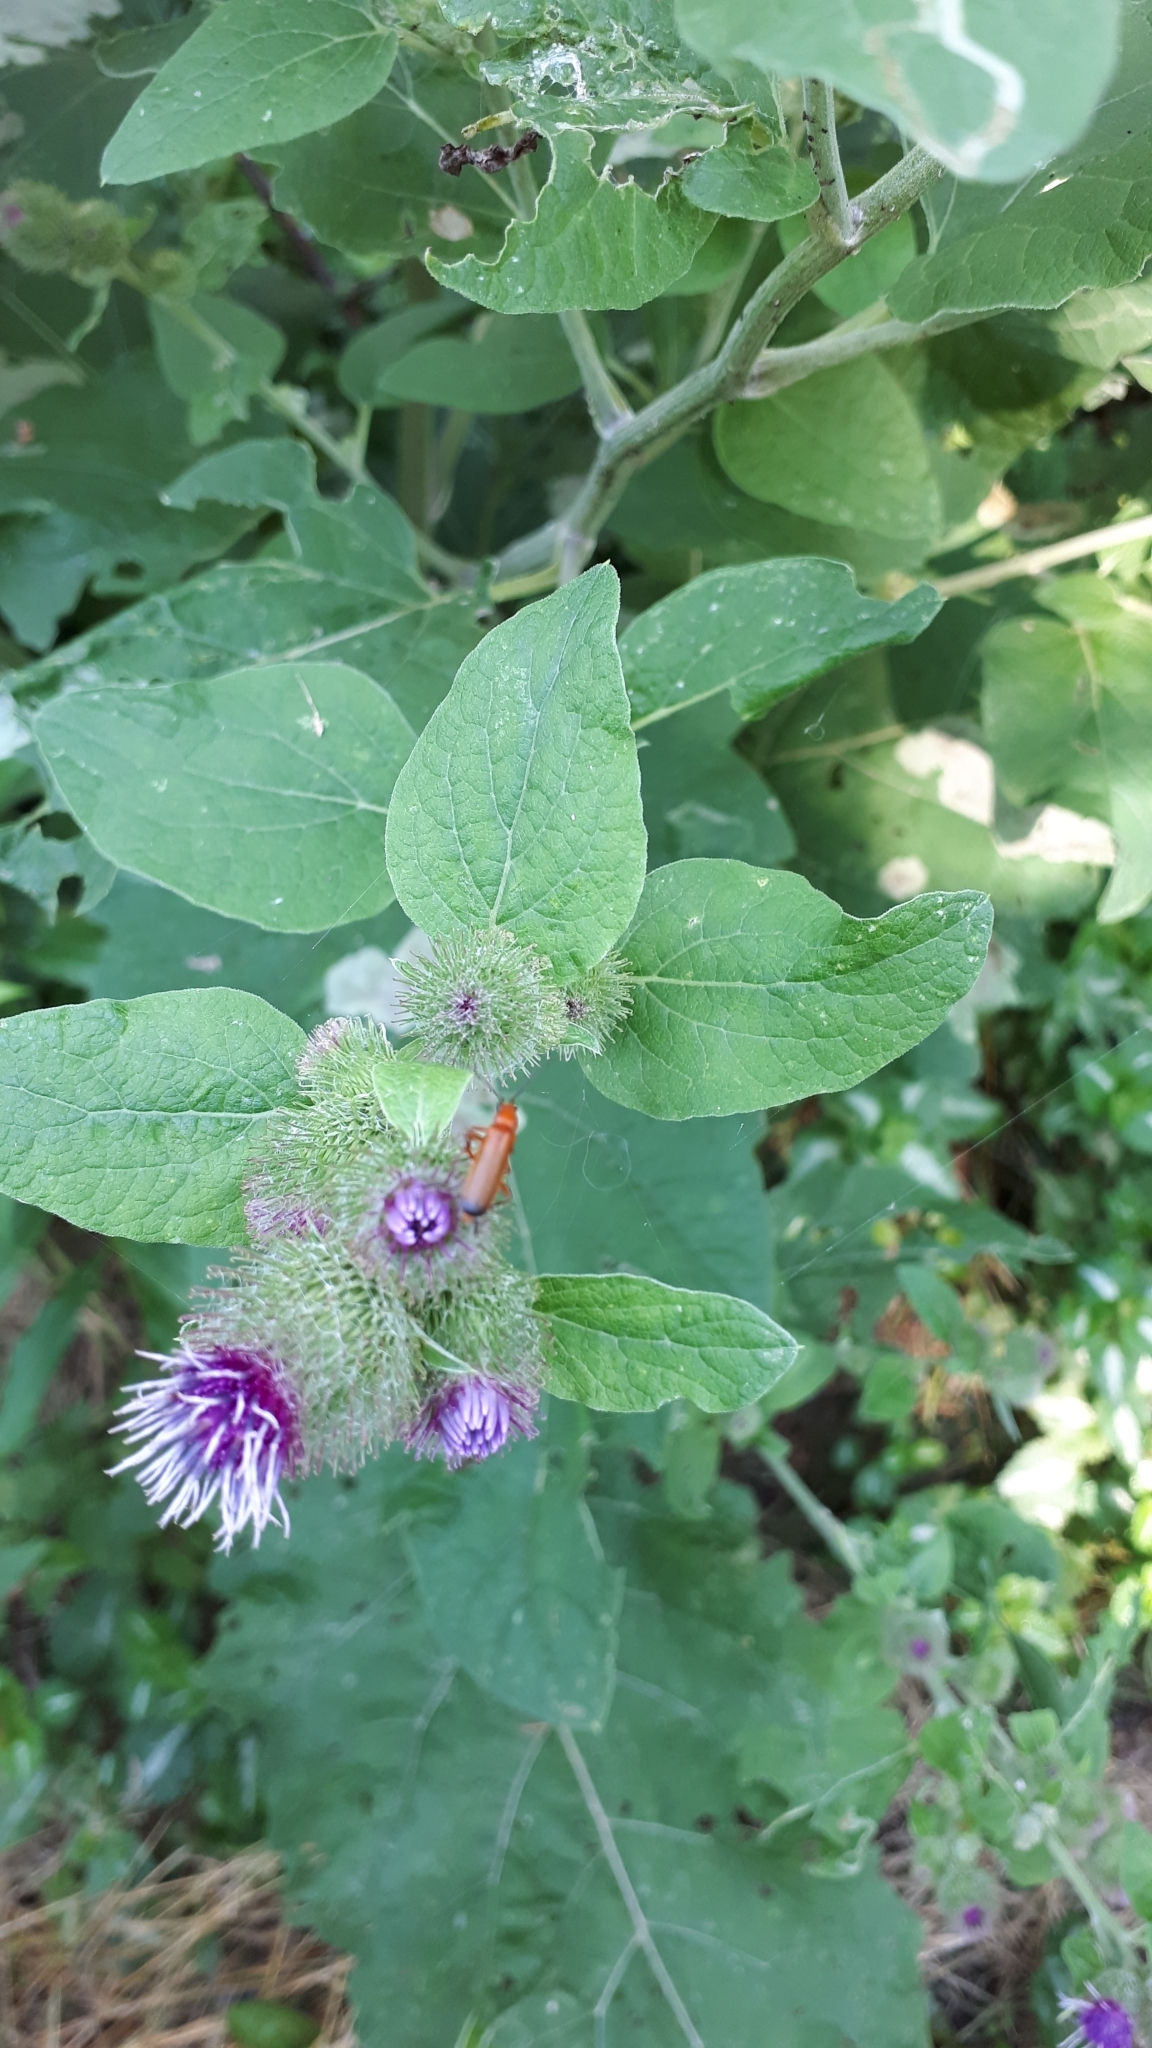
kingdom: Plantae
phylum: Tracheophyta
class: Magnoliopsida
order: Asterales
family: Asteraceae
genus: Arctium
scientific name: Arctium minus
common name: Lesser burdock
